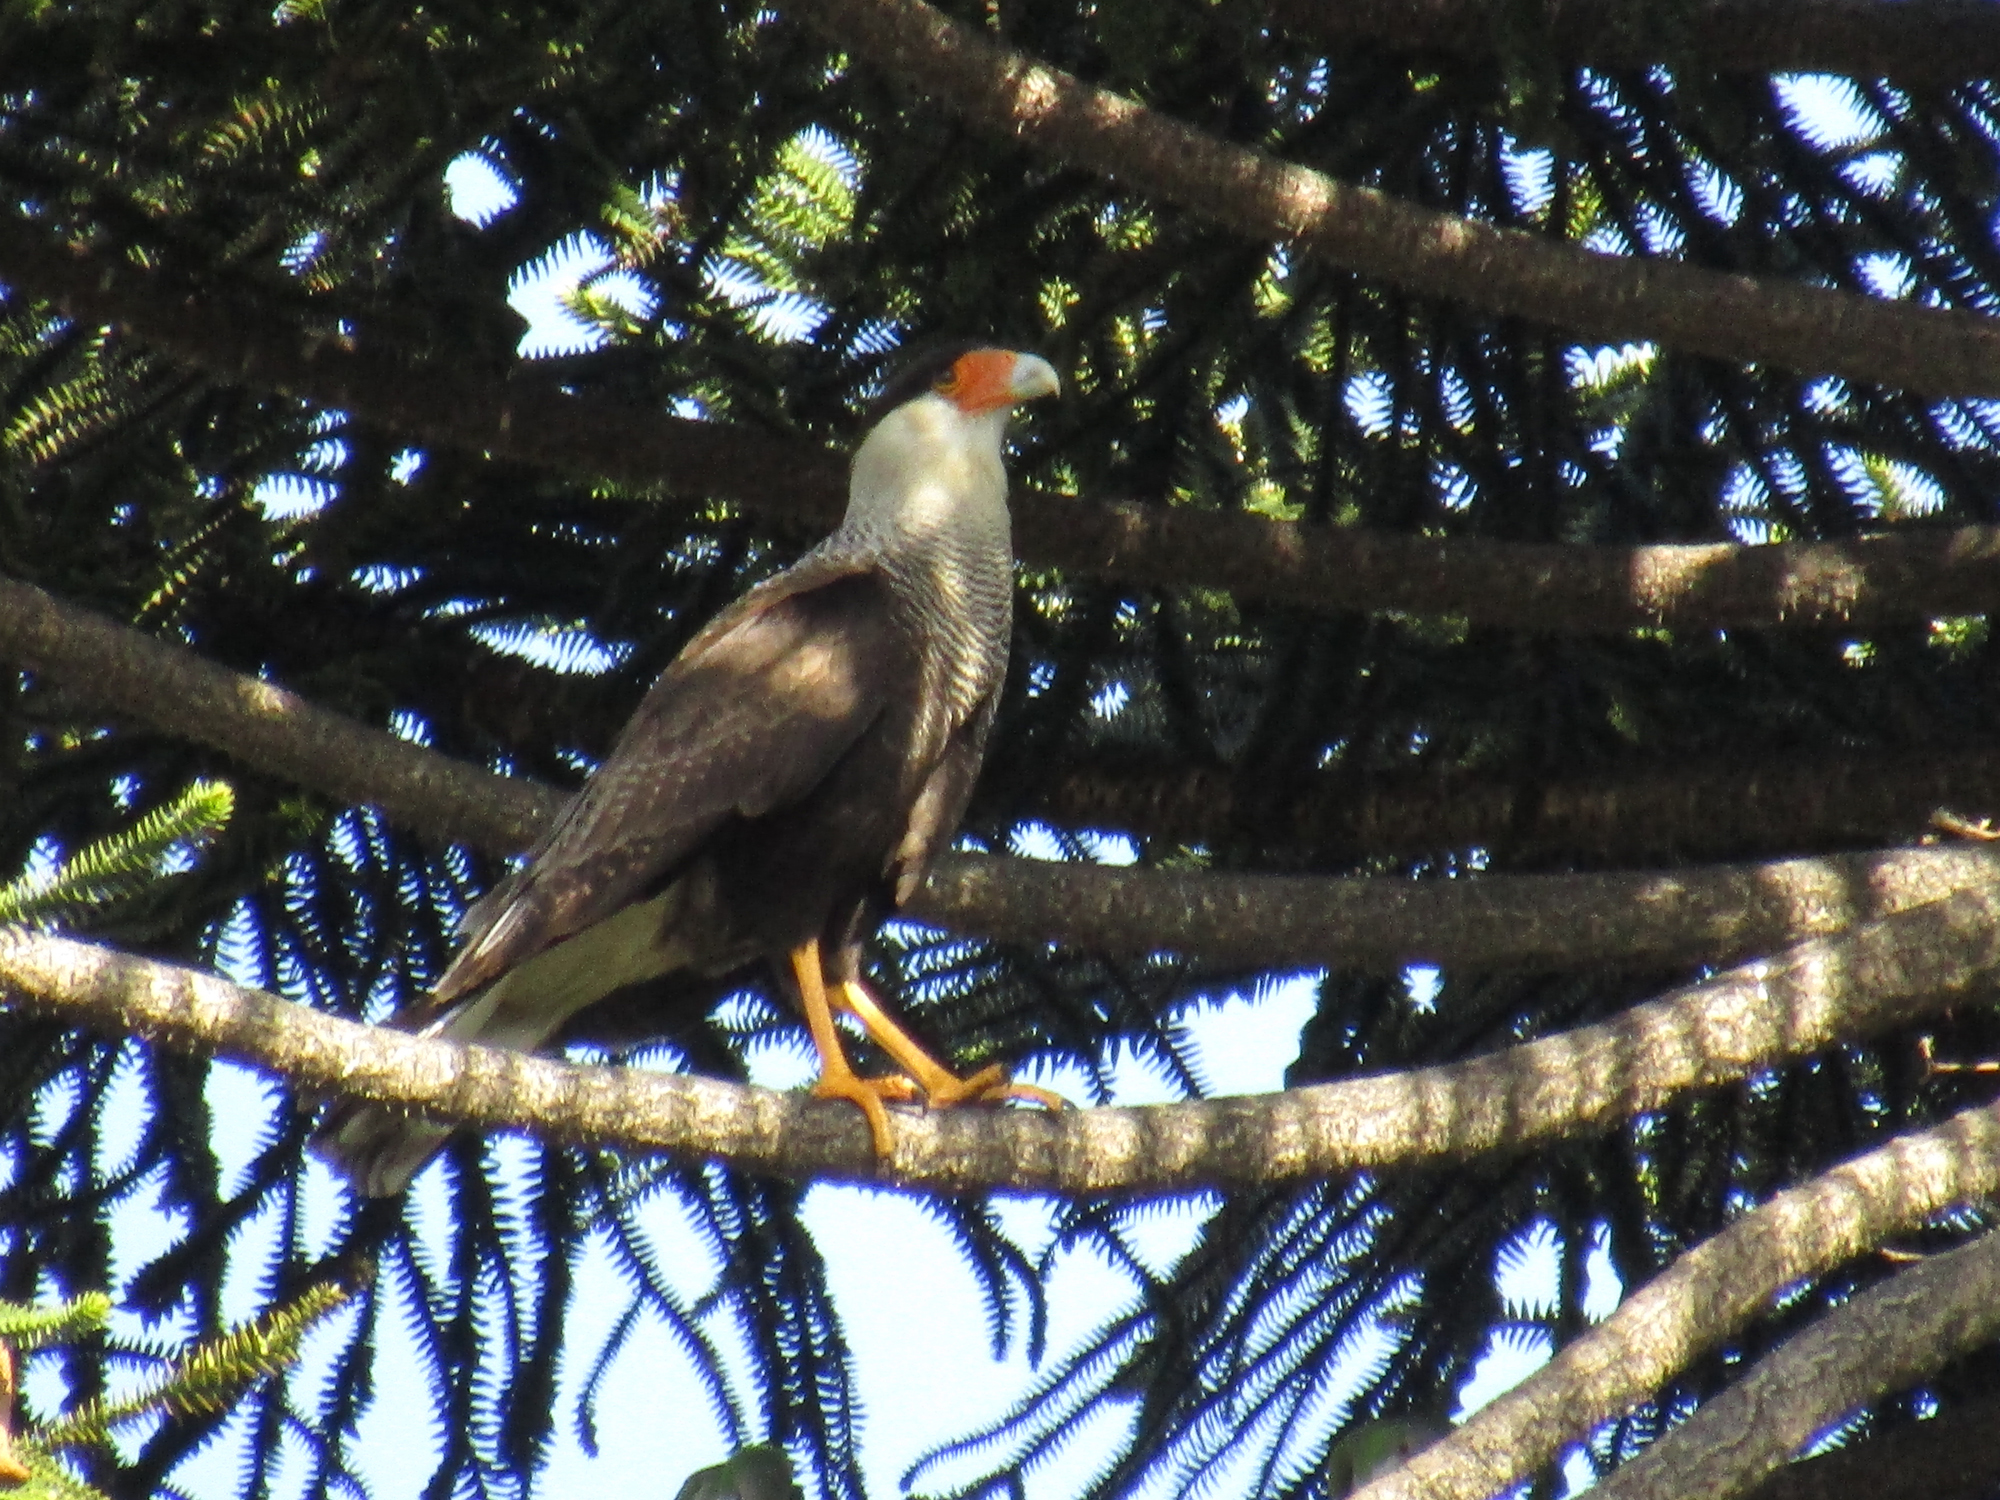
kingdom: Animalia
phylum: Chordata
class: Aves
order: Falconiformes
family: Falconidae
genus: Caracara
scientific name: Caracara plancus
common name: Southern caracara
